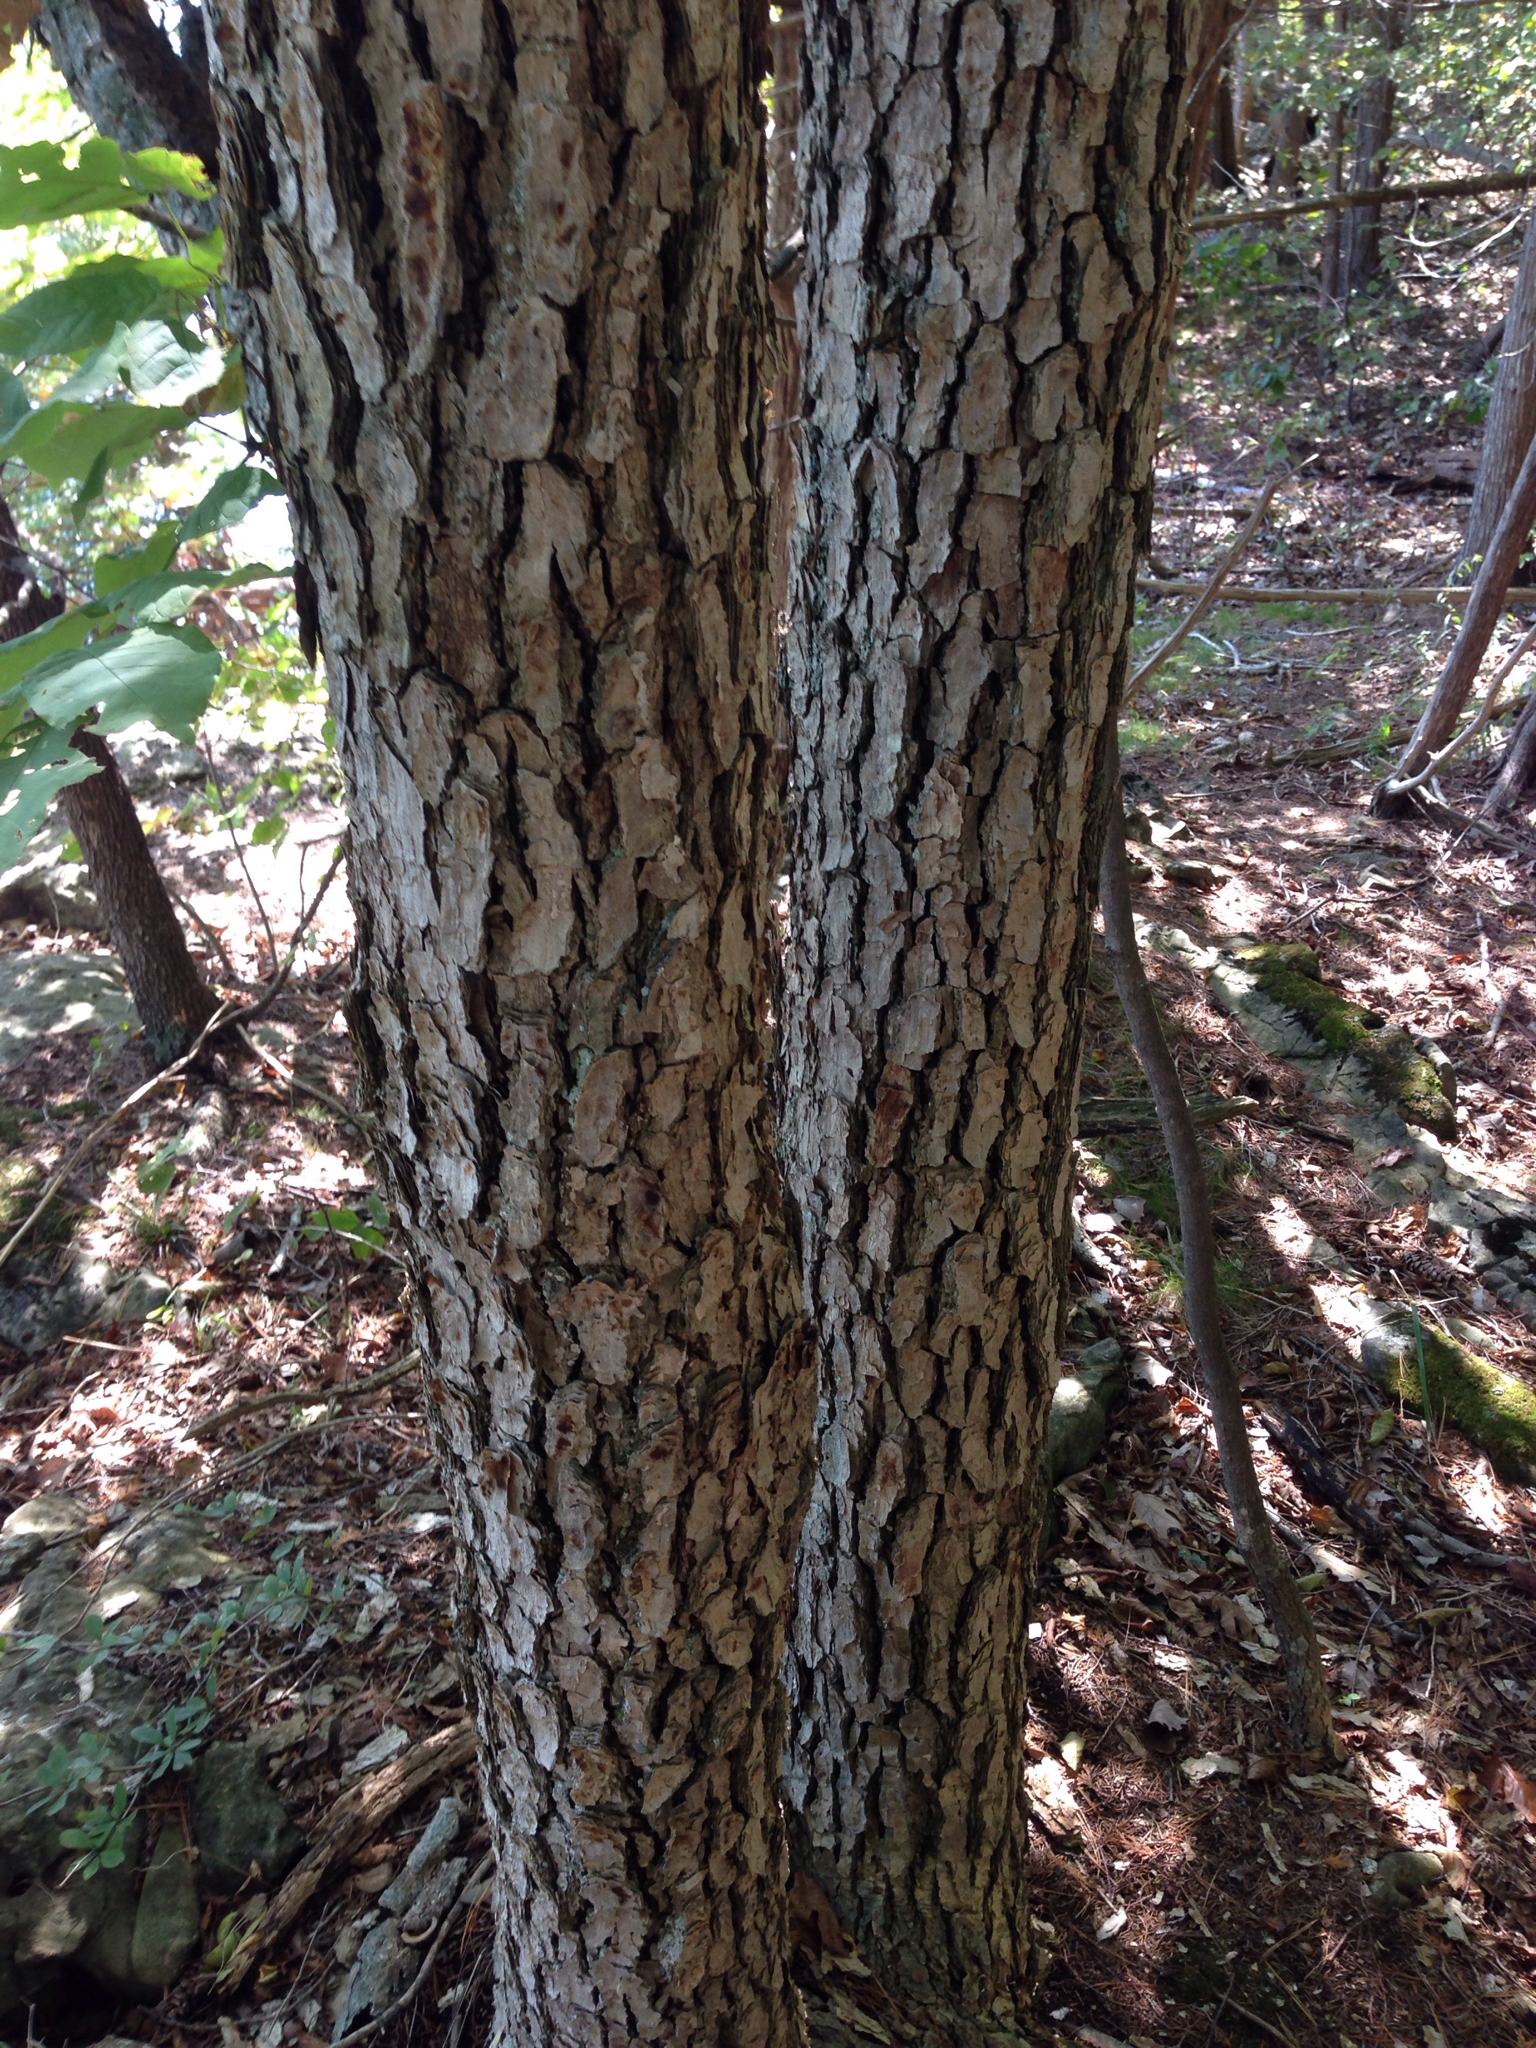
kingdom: Plantae
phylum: Tracheophyta
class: Magnoliopsida
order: Fagales
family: Fagaceae
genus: Quercus
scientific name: Quercus muehlenbergii
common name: Chinkapin oak
